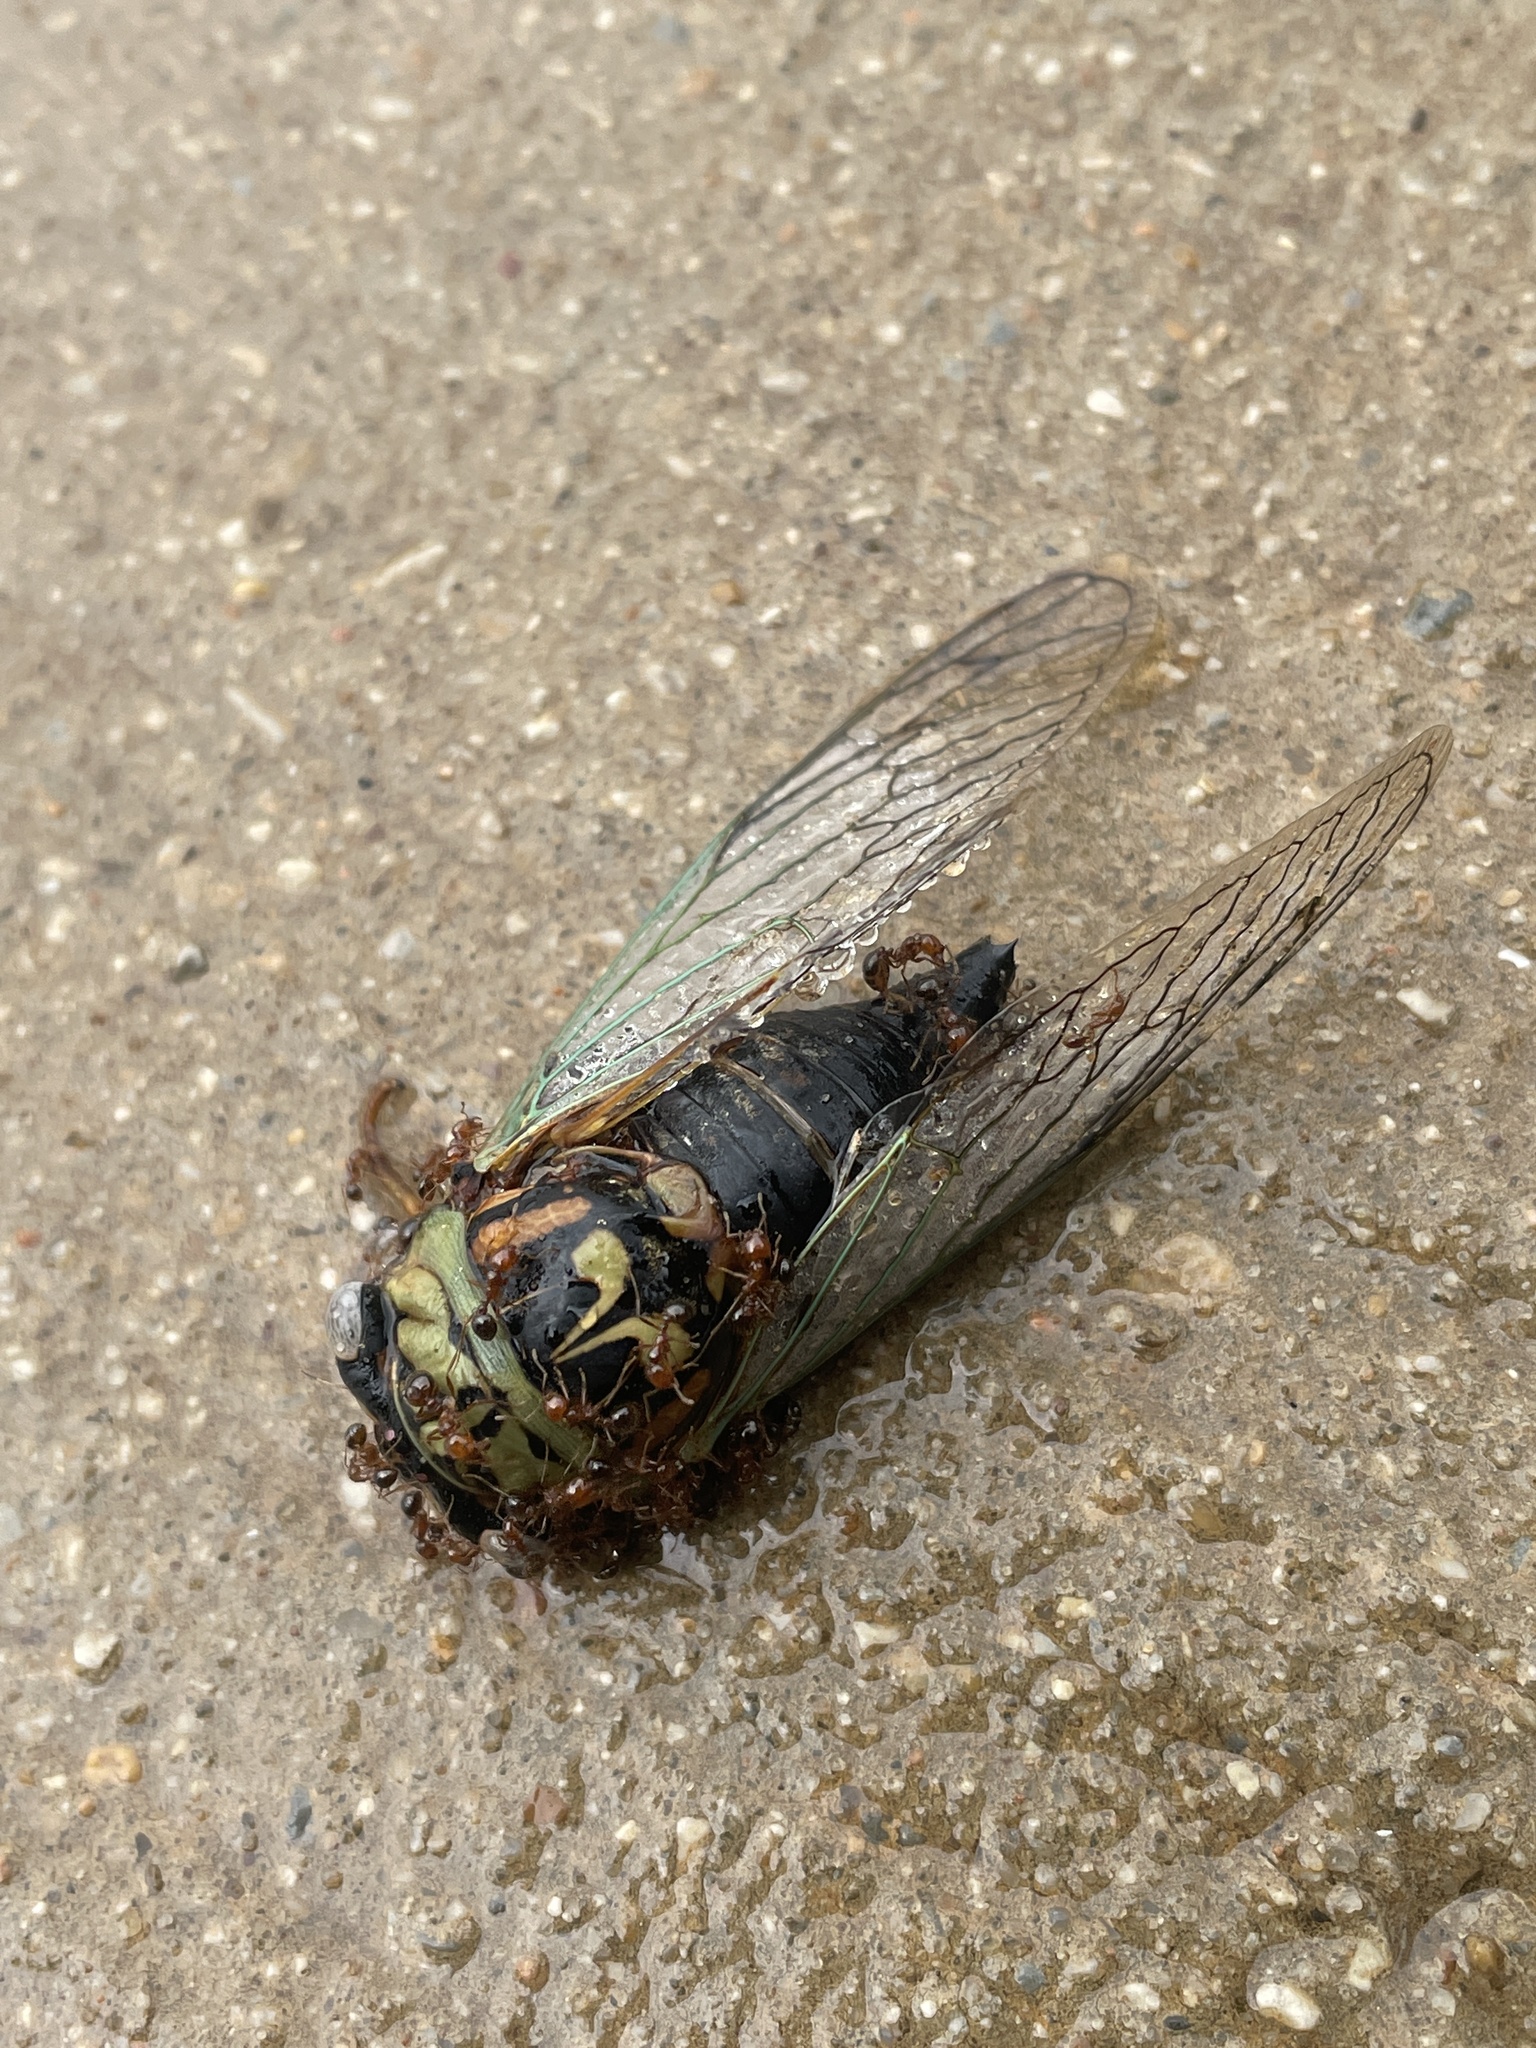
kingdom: Animalia
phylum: Arthropoda
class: Insecta
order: Hemiptera
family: Cicadidae
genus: Megatibicen
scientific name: Megatibicen resh
